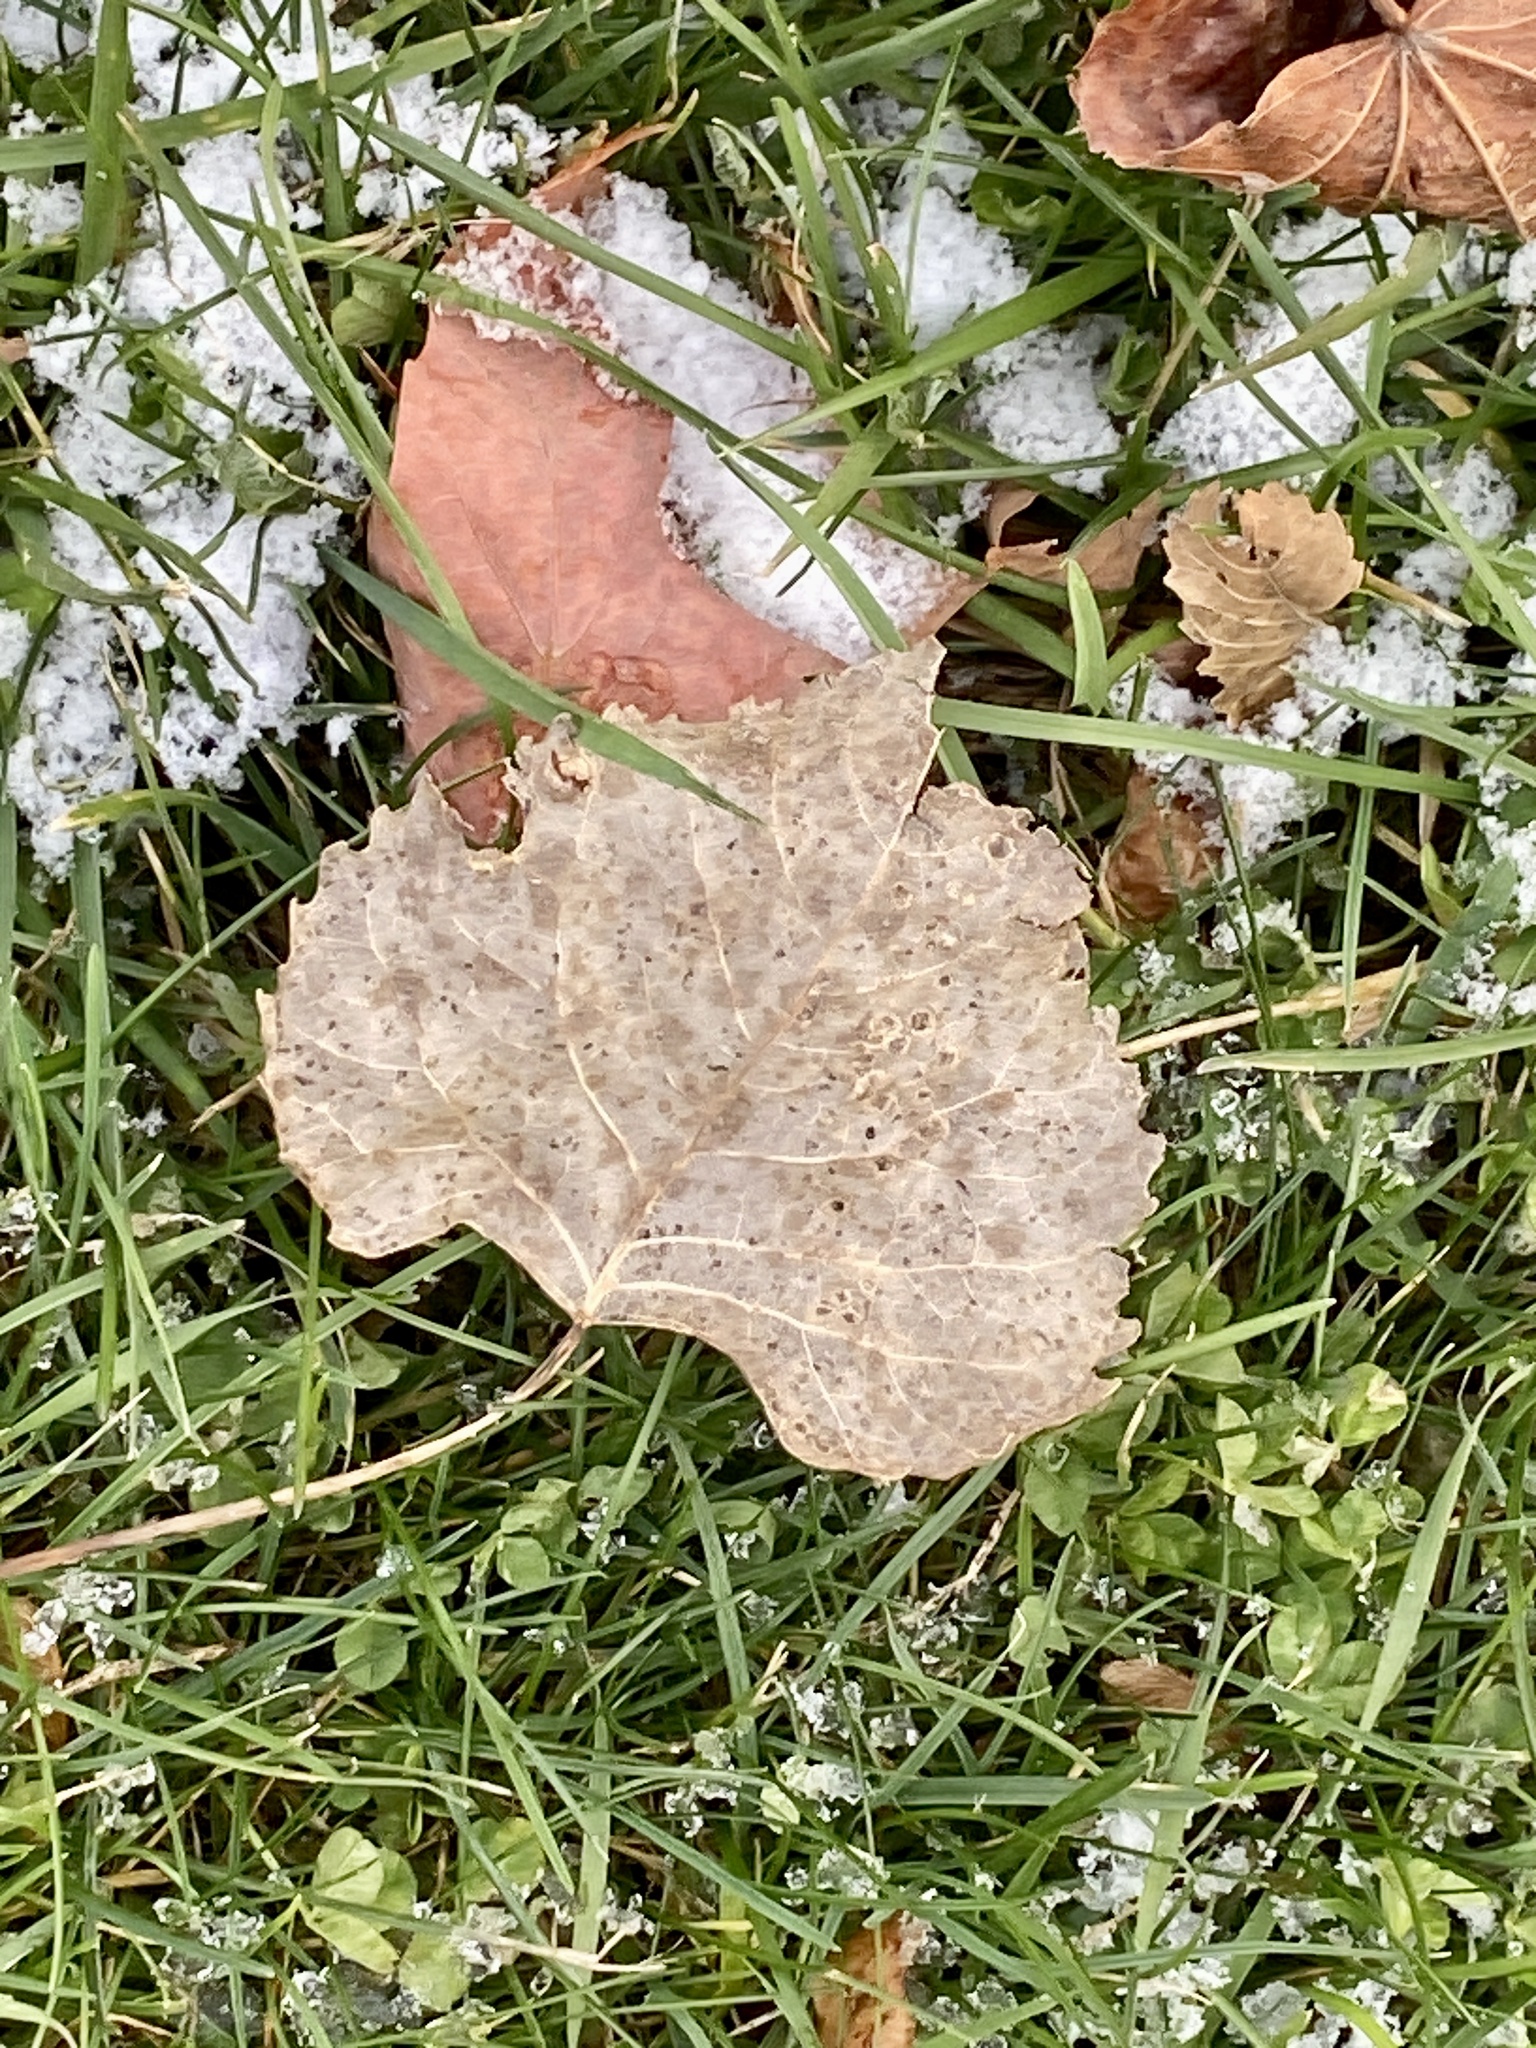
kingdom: Plantae
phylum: Tracheophyta
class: Magnoliopsida
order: Malpighiales
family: Salicaceae
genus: Populus
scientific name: Populus deltoides
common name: Eastern cottonwood
